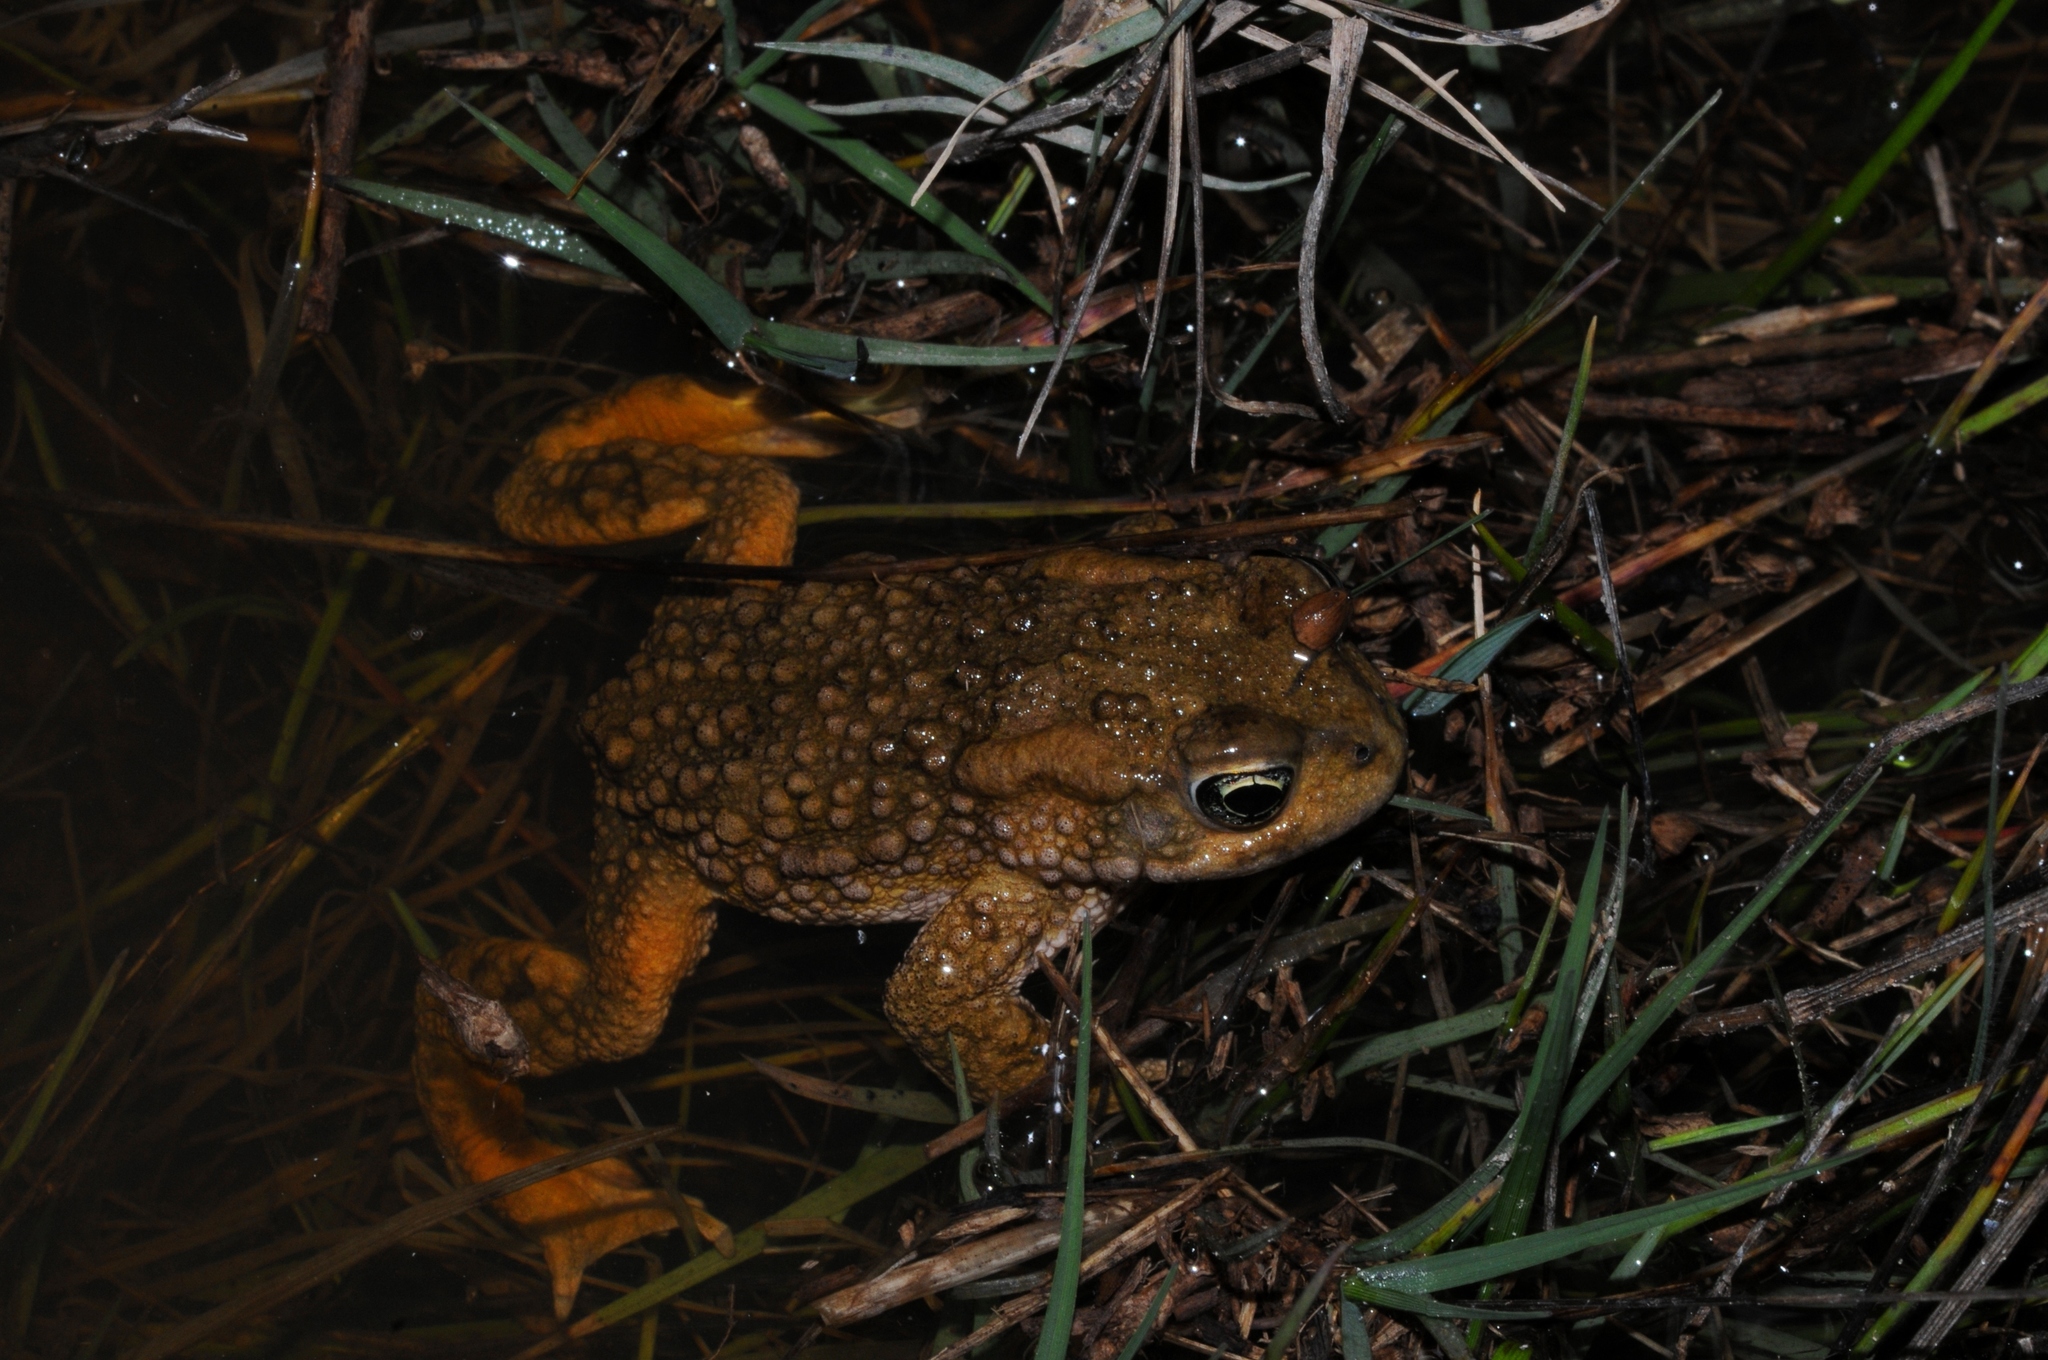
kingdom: Animalia
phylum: Chordata
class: Amphibia
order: Anura
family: Bufonidae
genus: Vandijkophrynus
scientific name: Vandijkophrynus angusticeps
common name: Sand toad
